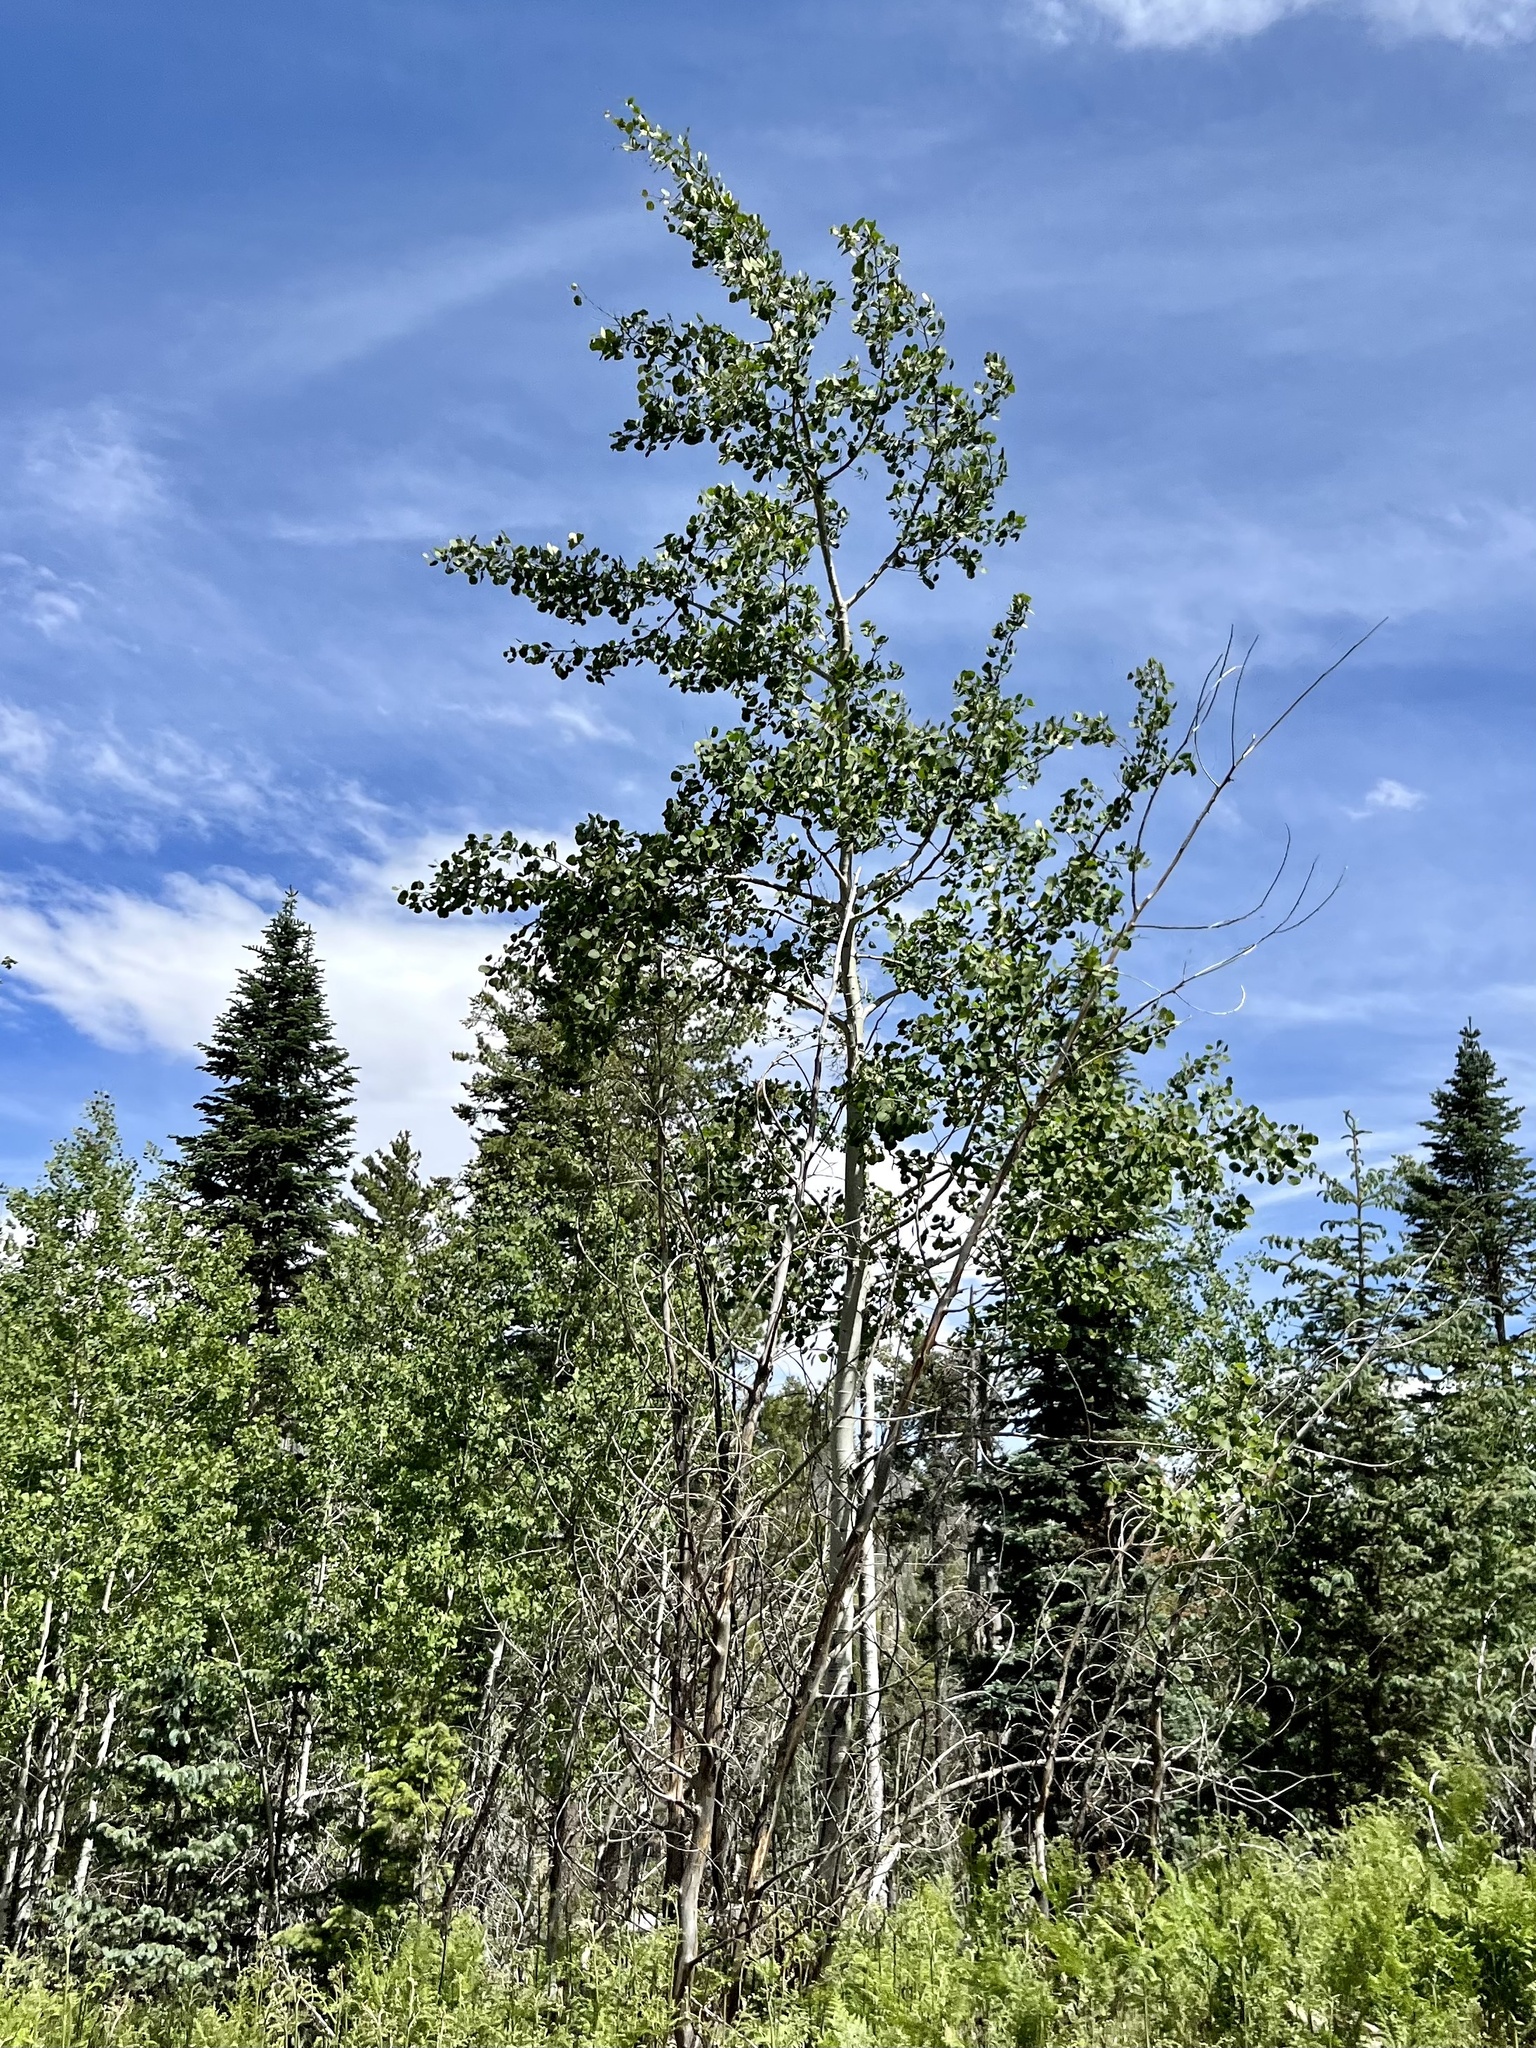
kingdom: Plantae
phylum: Tracheophyta
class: Magnoliopsida
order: Malpighiales
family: Salicaceae
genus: Populus
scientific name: Populus tremuloides
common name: Quaking aspen
